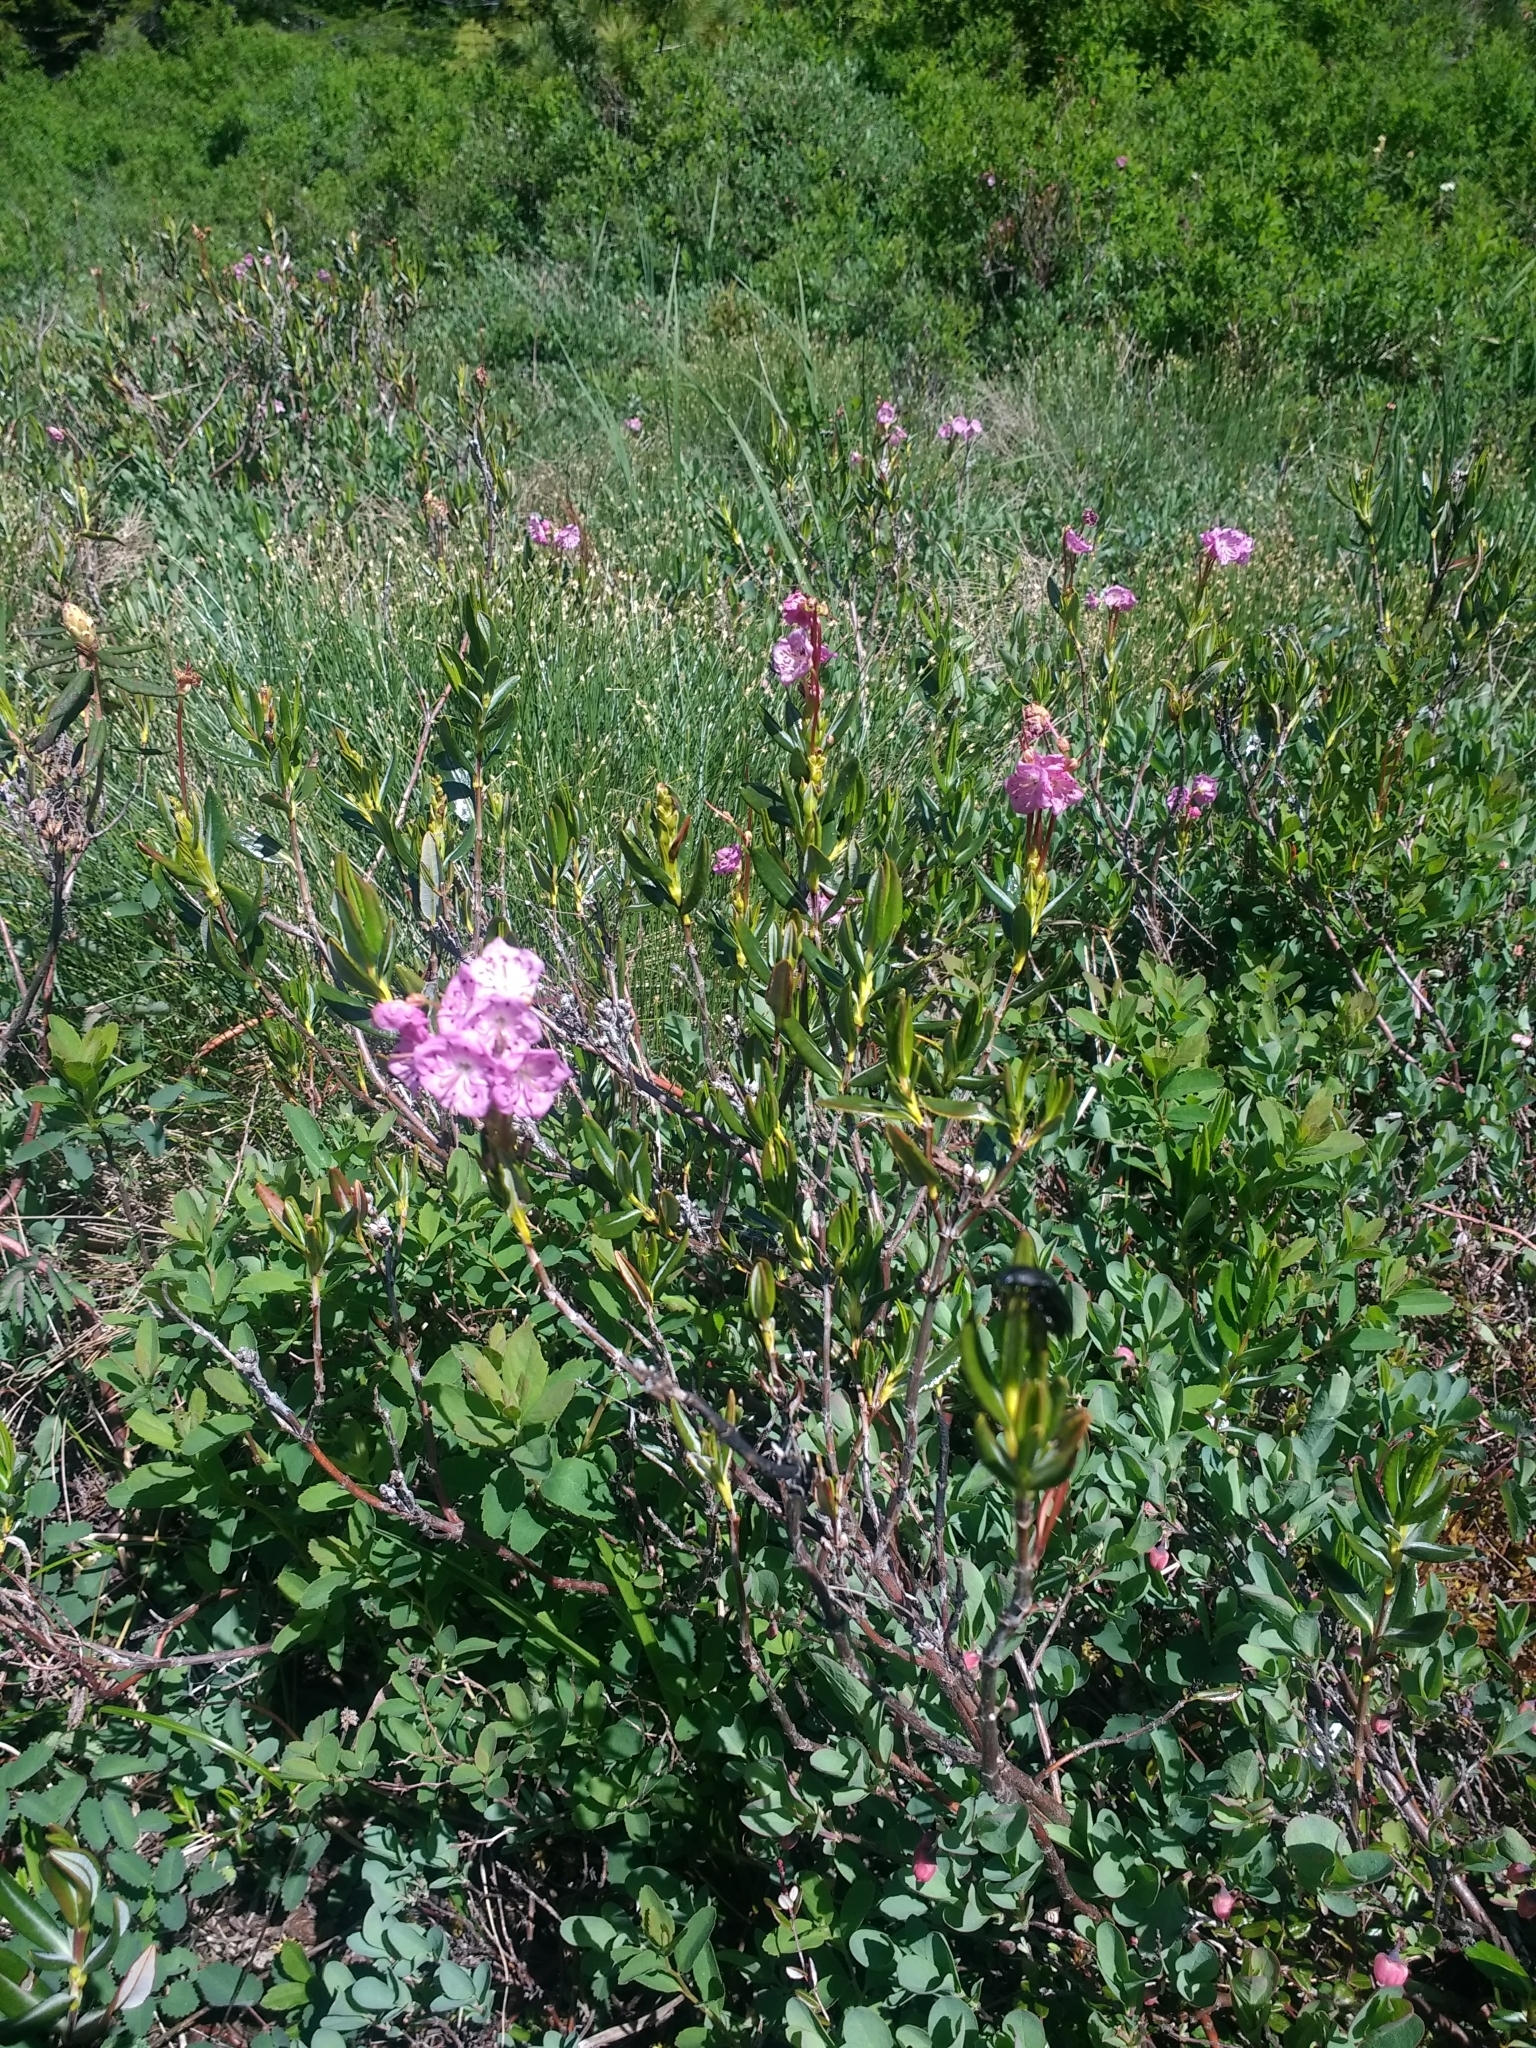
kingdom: Plantae
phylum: Tracheophyta
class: Magnoliopsida
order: Ericales
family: Ericaceae
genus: Kalmia
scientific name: Kalmia microphylla
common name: Alpine bog laurel
